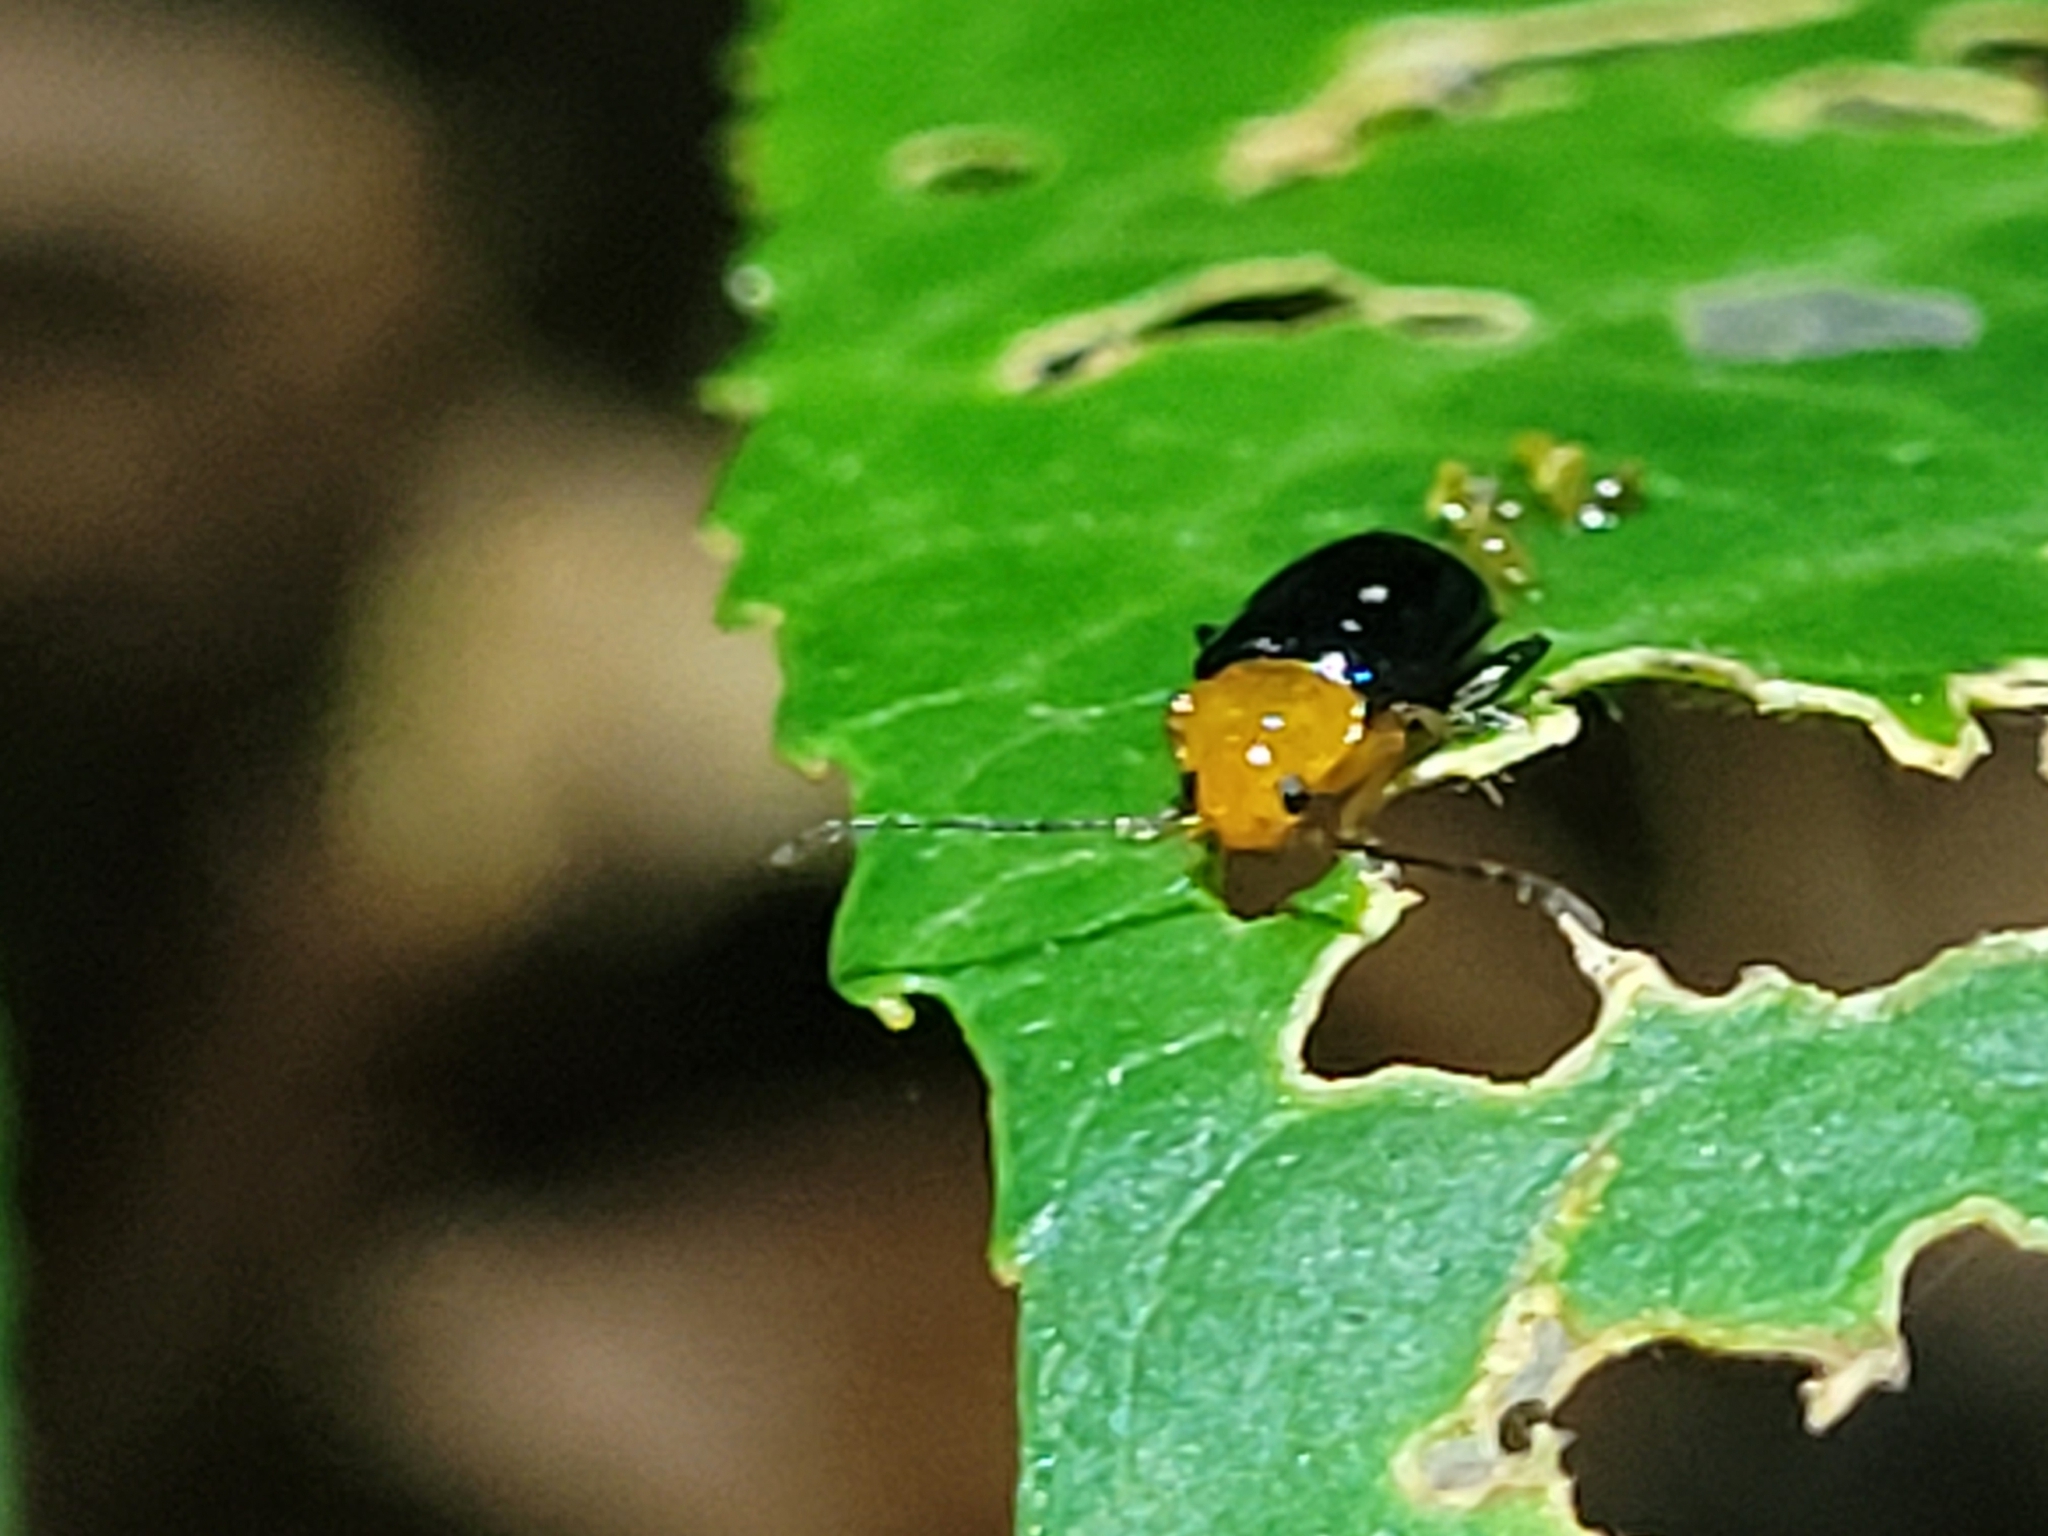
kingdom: Animalia
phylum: Arthropoda
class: Insecta
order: Coleoptera
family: Chrysomelidae
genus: Parchicola
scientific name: Parchicola iris
